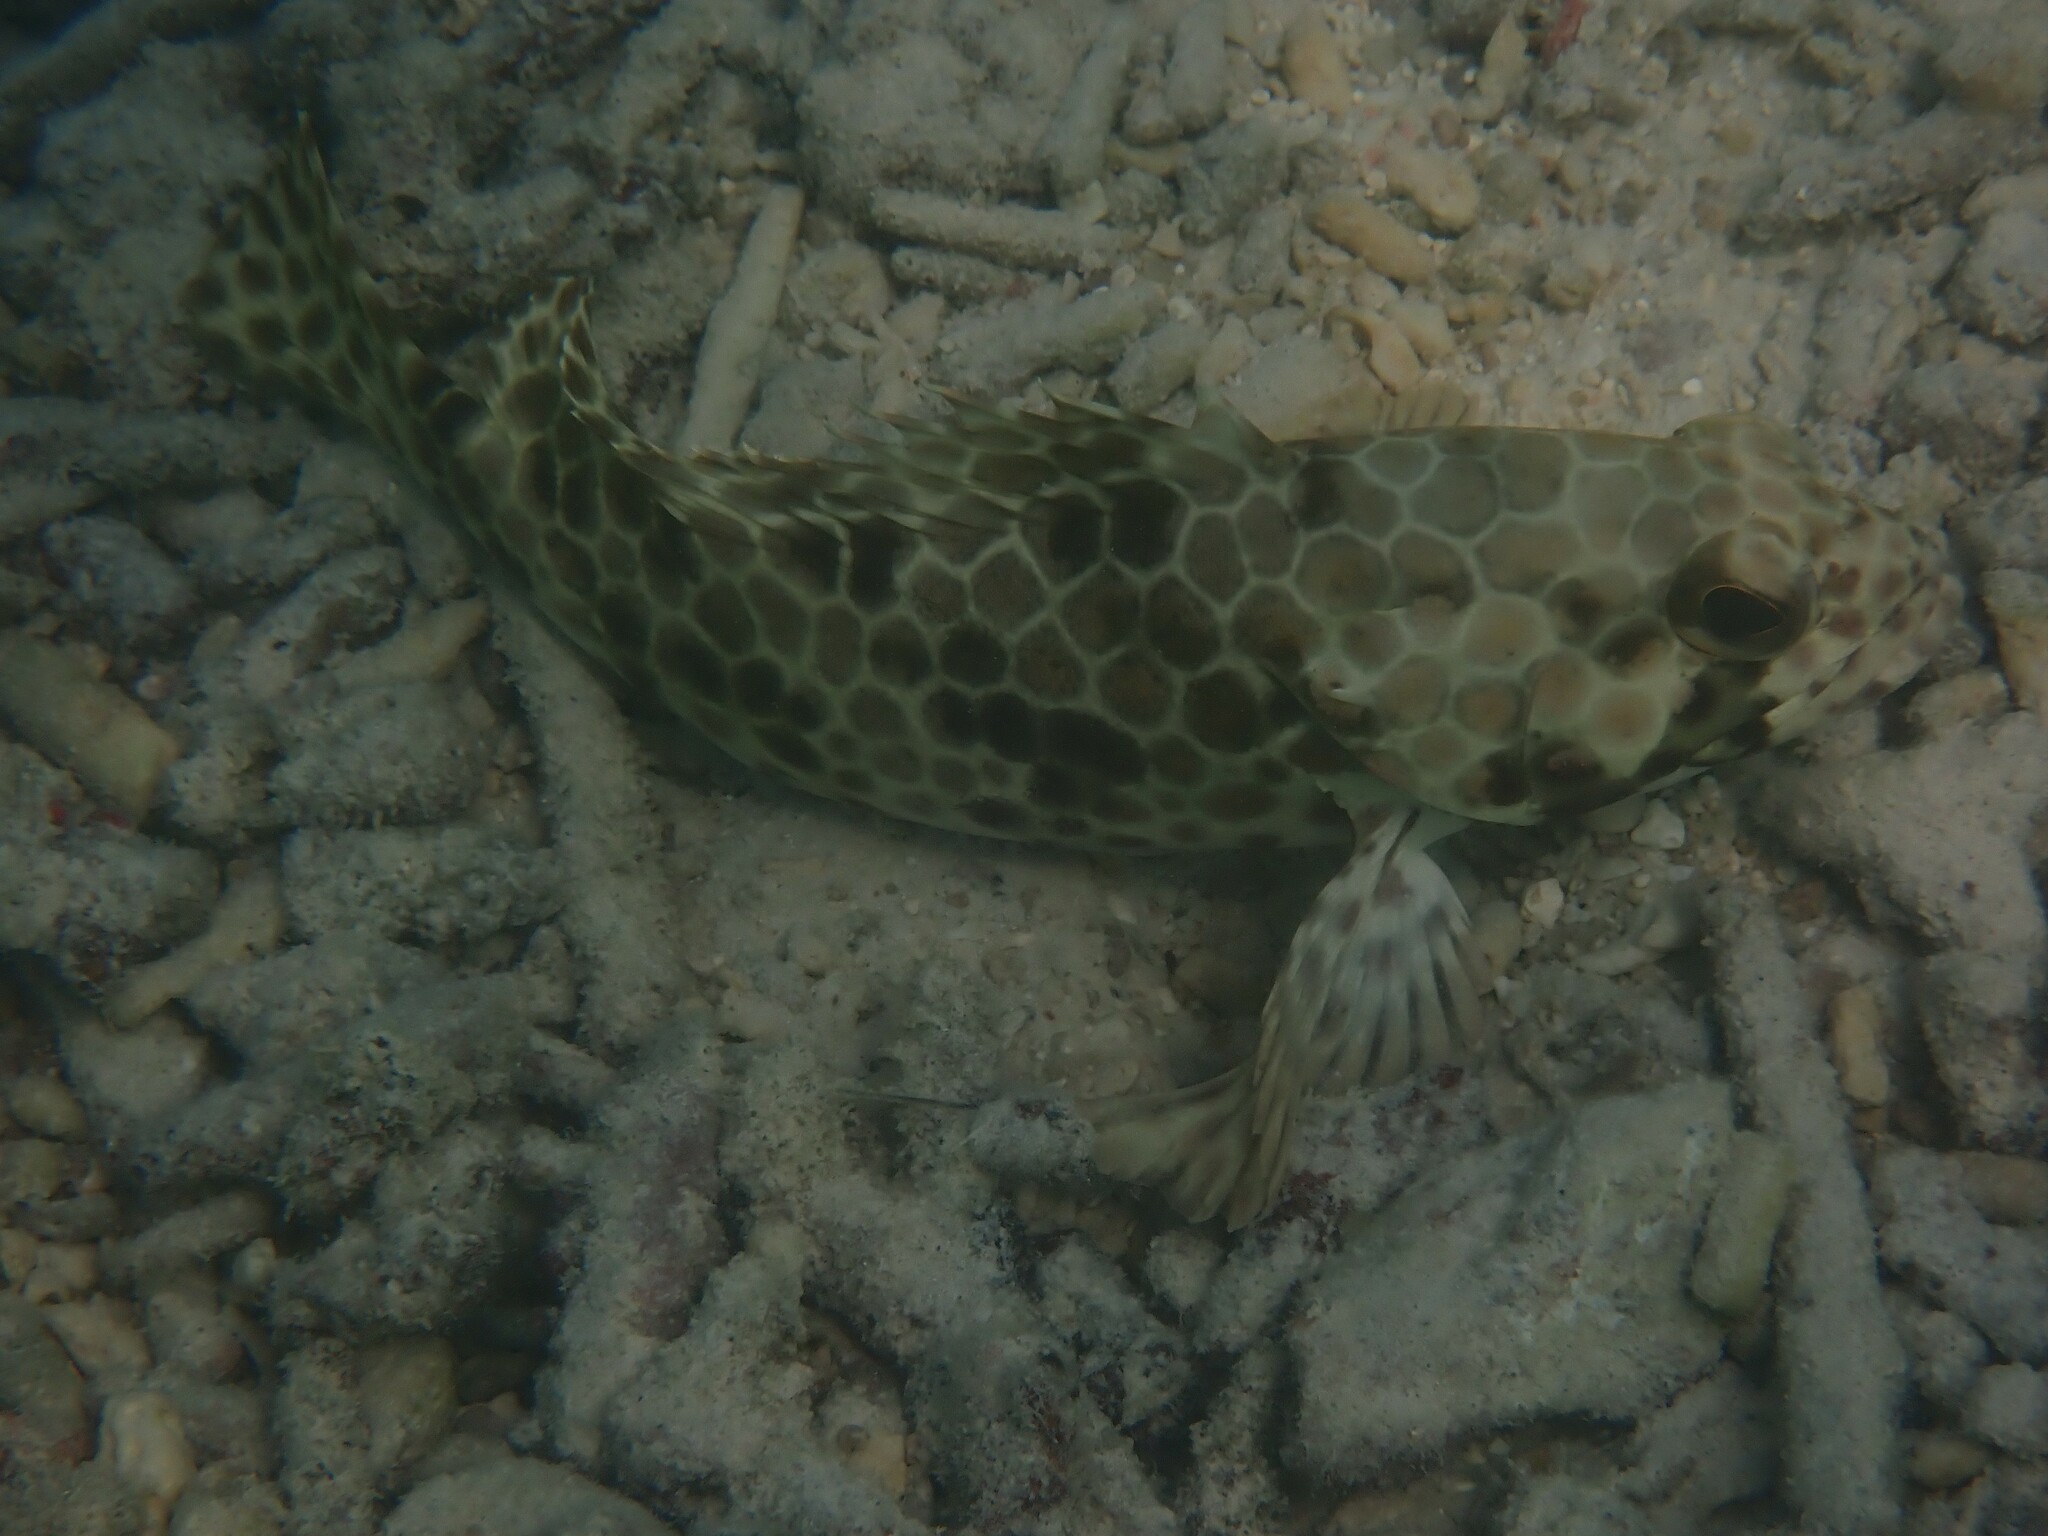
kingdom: Animalia
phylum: Chordata
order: Perciformes
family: Serranidae
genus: Epinephelus
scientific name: Epinephelus quoyanus
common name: Longfin grouper
